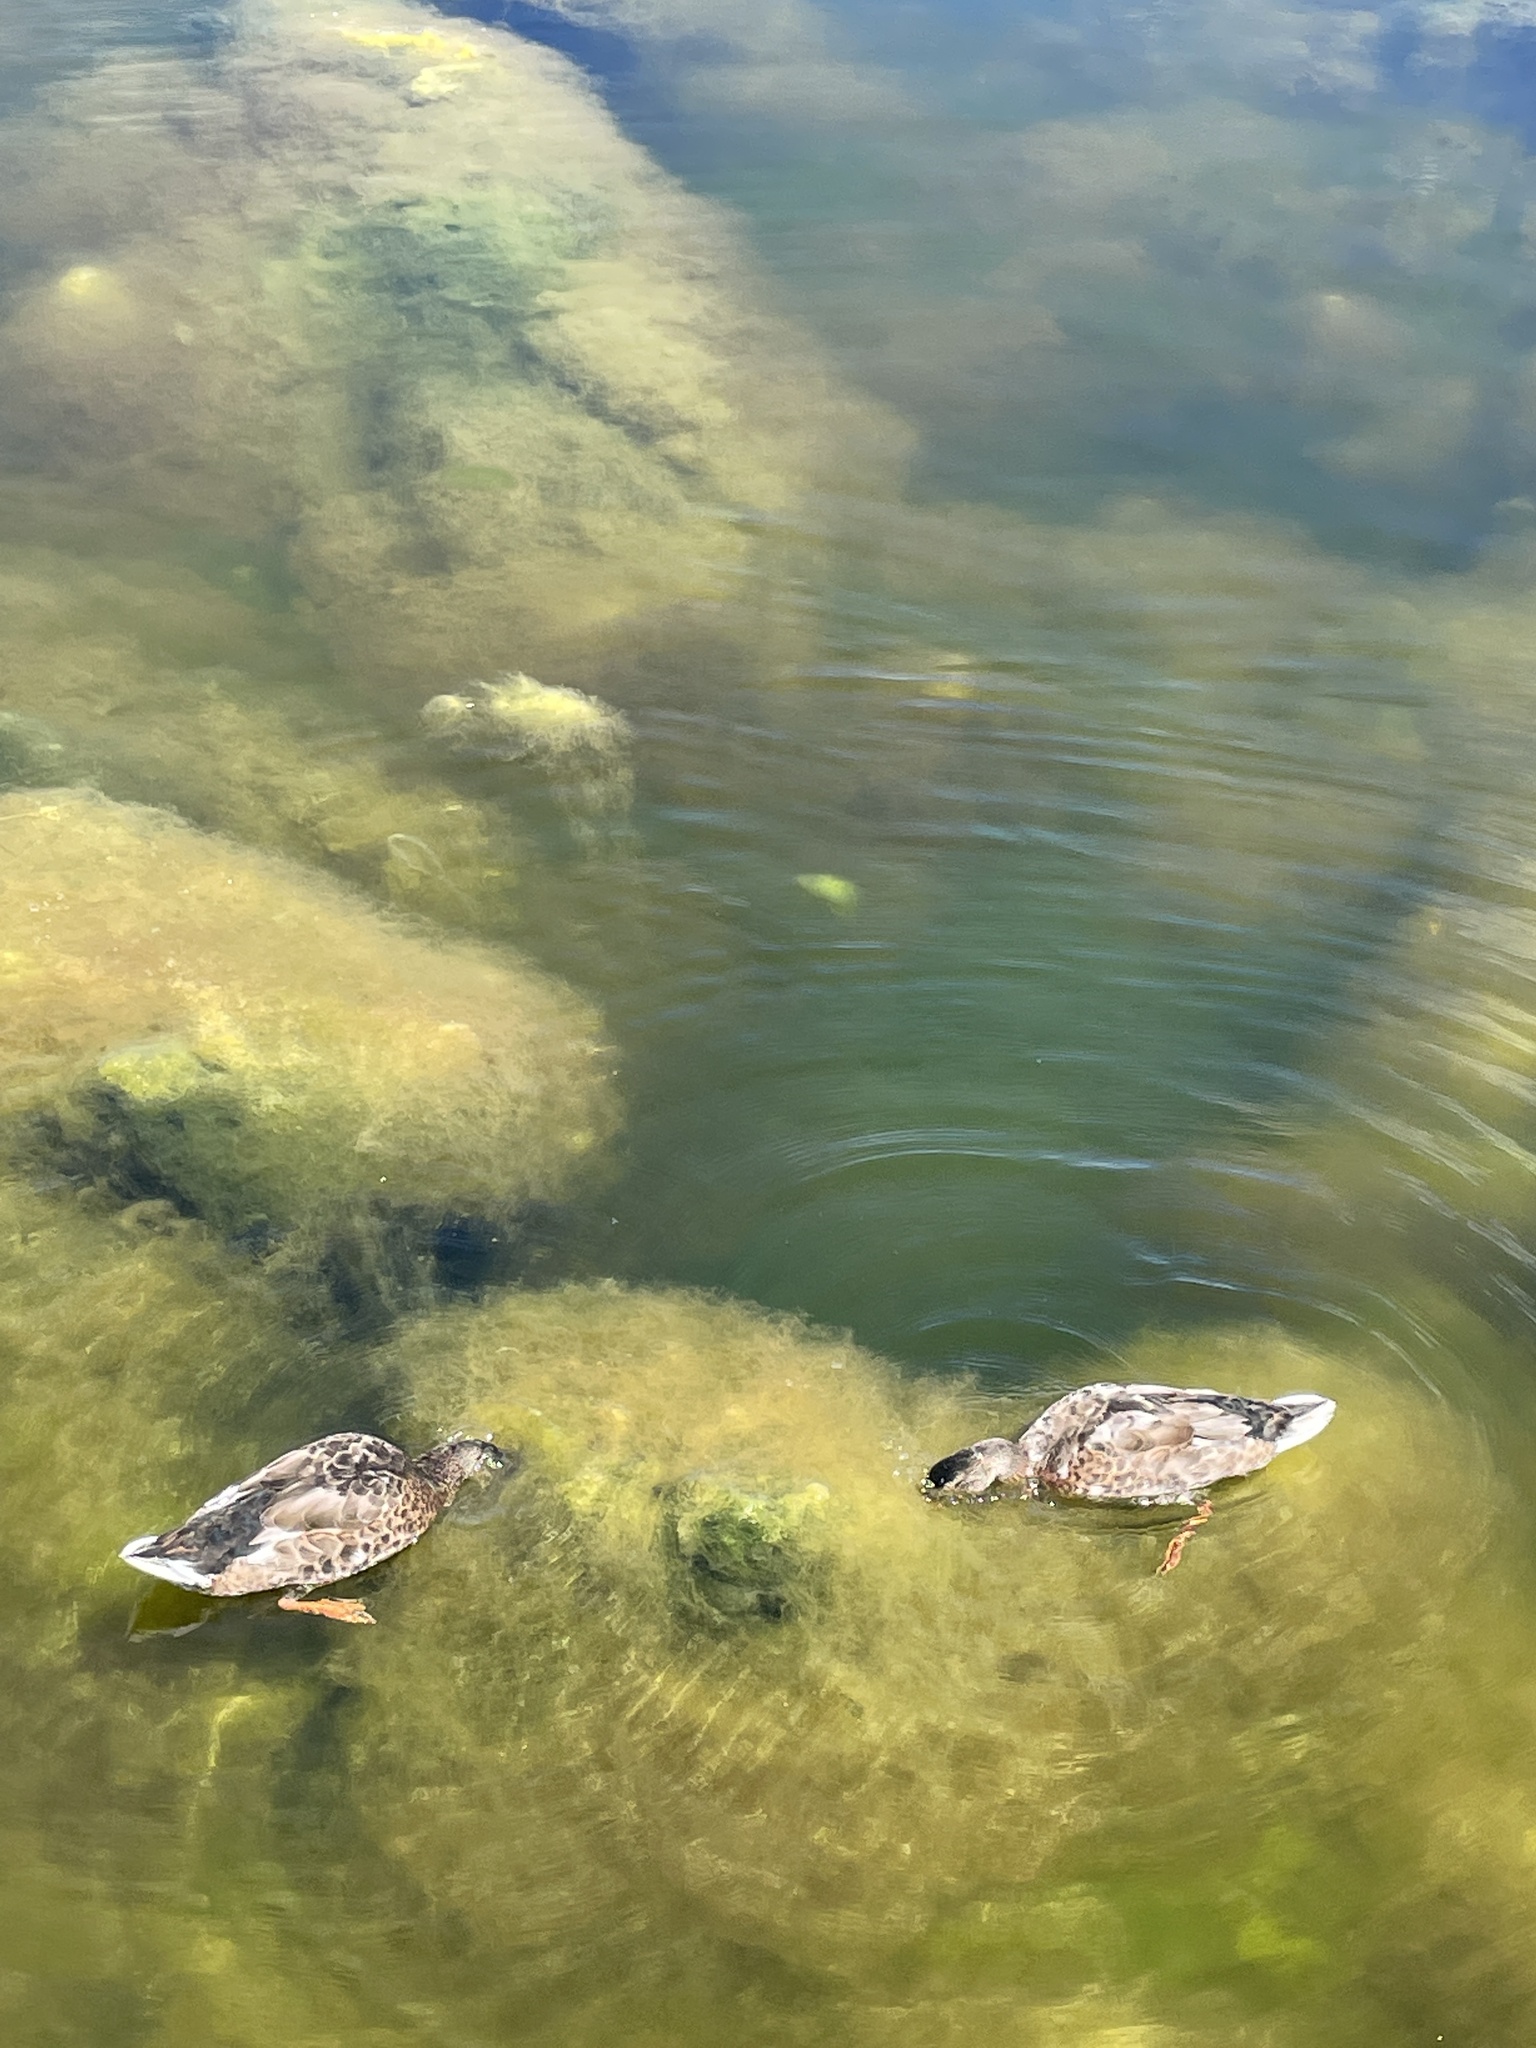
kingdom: Animalia
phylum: Chordata
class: Aves
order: Anseriformes
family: Anatidae
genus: Anas
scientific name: Anas platyrhynchos
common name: Mallard
